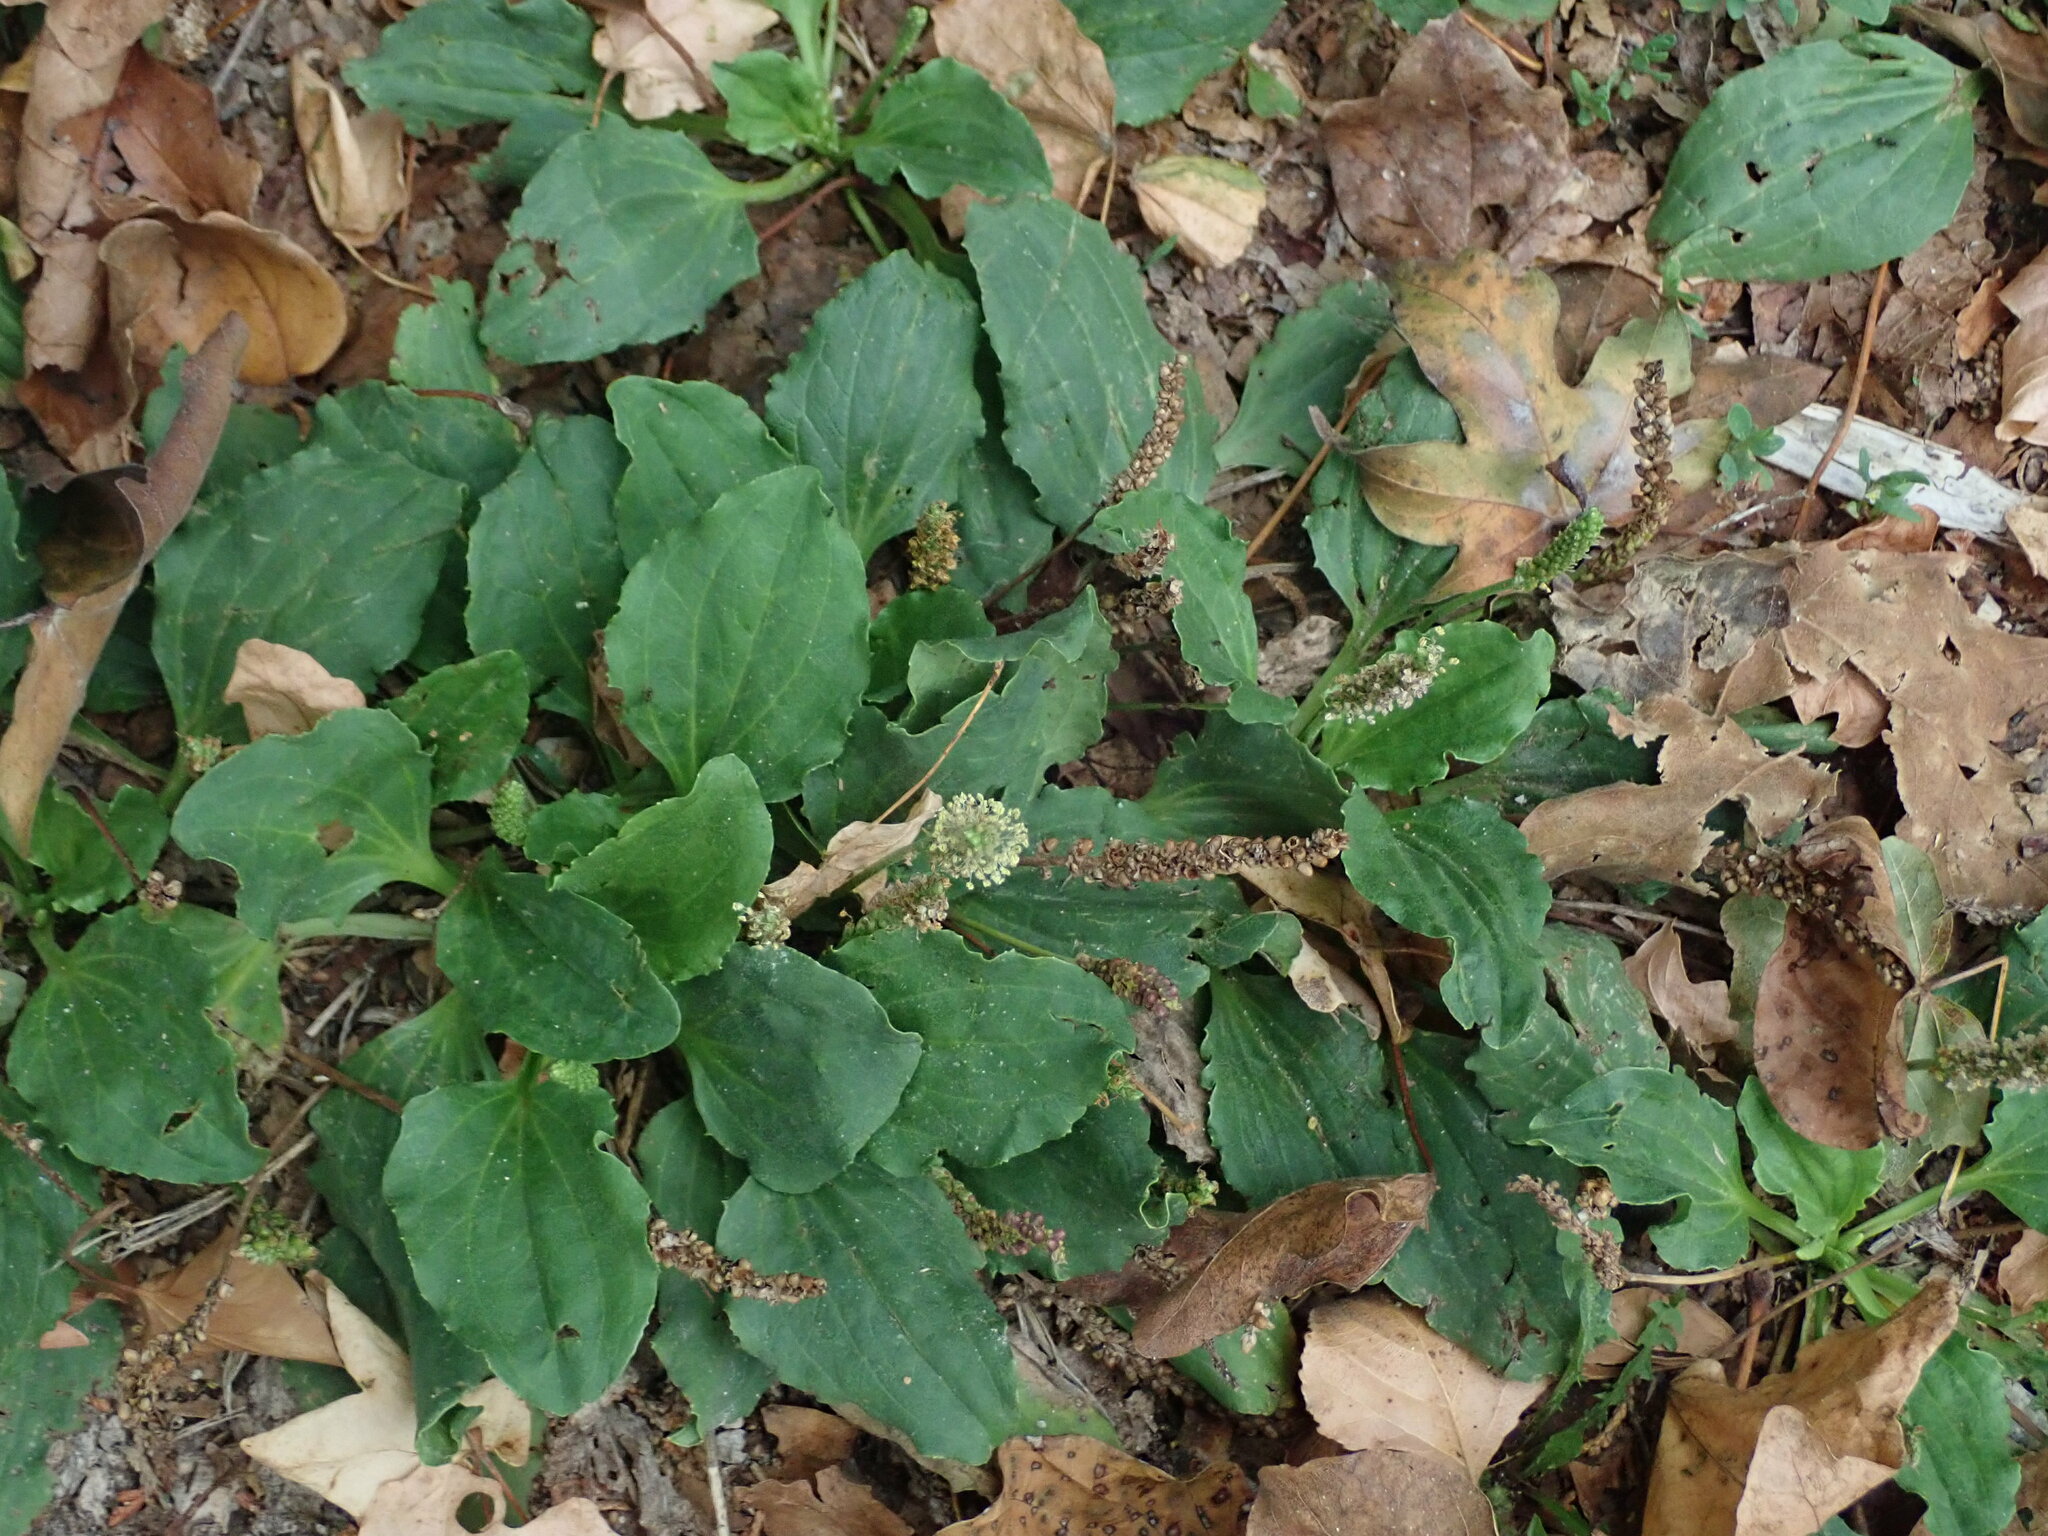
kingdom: Plantae
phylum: Tracheophyta
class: Magnoliopsida
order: Lamiales
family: Plantaginaceae
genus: Plantago
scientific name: Plantago major
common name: Common plantain
